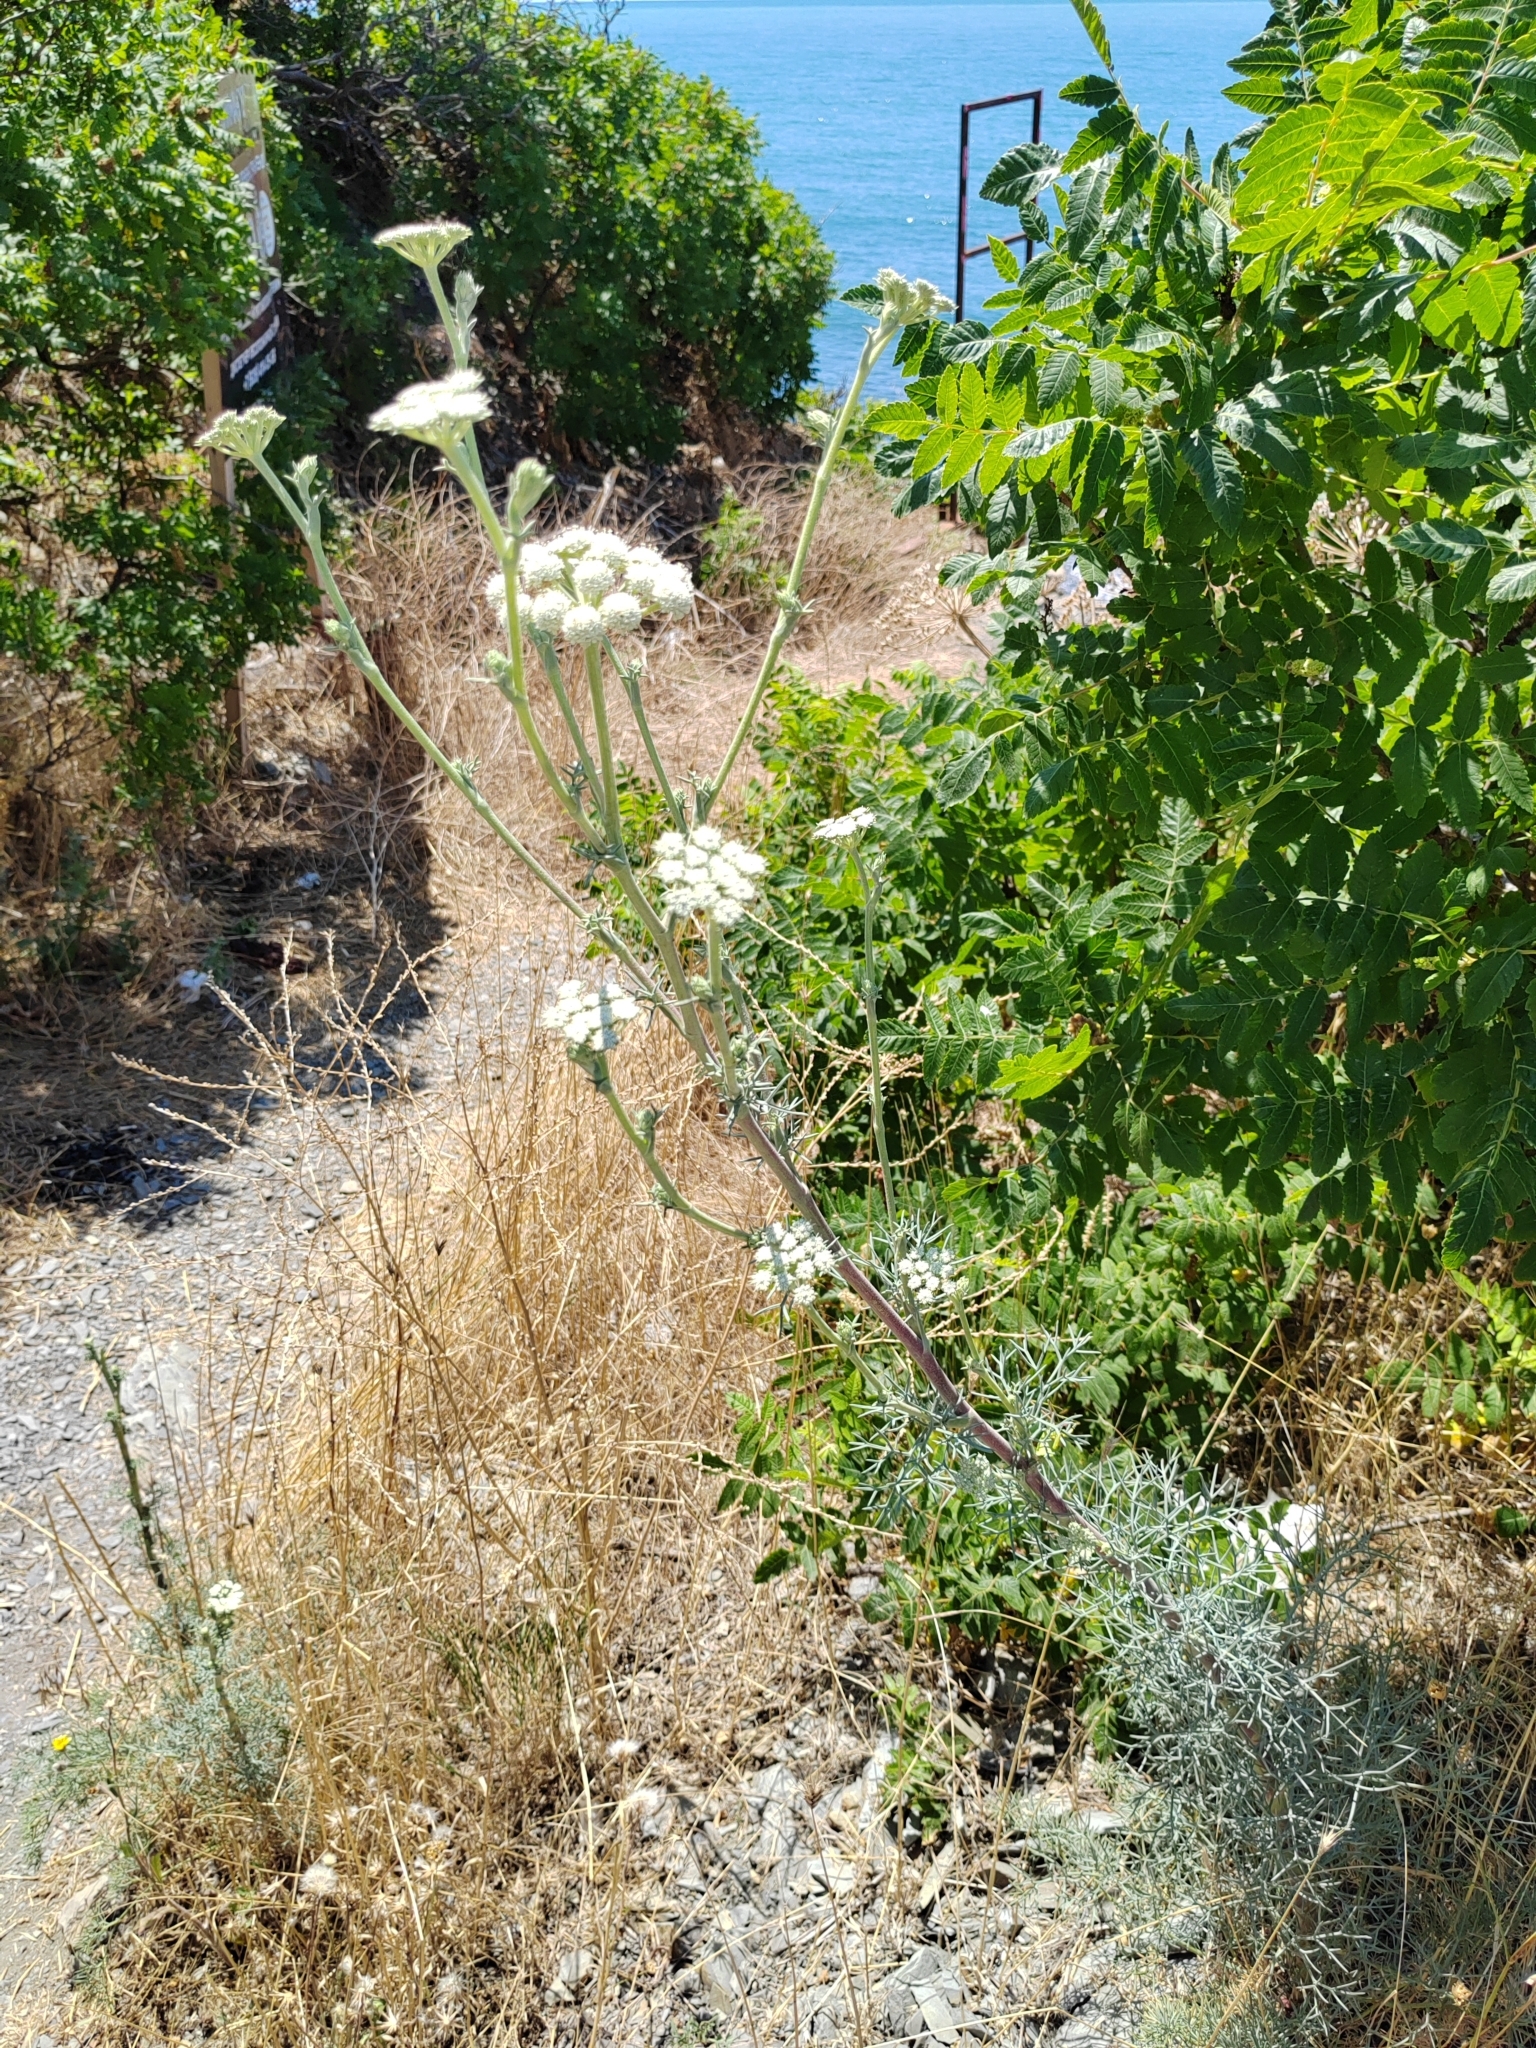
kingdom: Plantae
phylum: Tracheophyta
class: Magnoliopsida
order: Apiales
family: Apiaceae
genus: Seseli
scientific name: Seseli ponticum
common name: Pontic seseli
